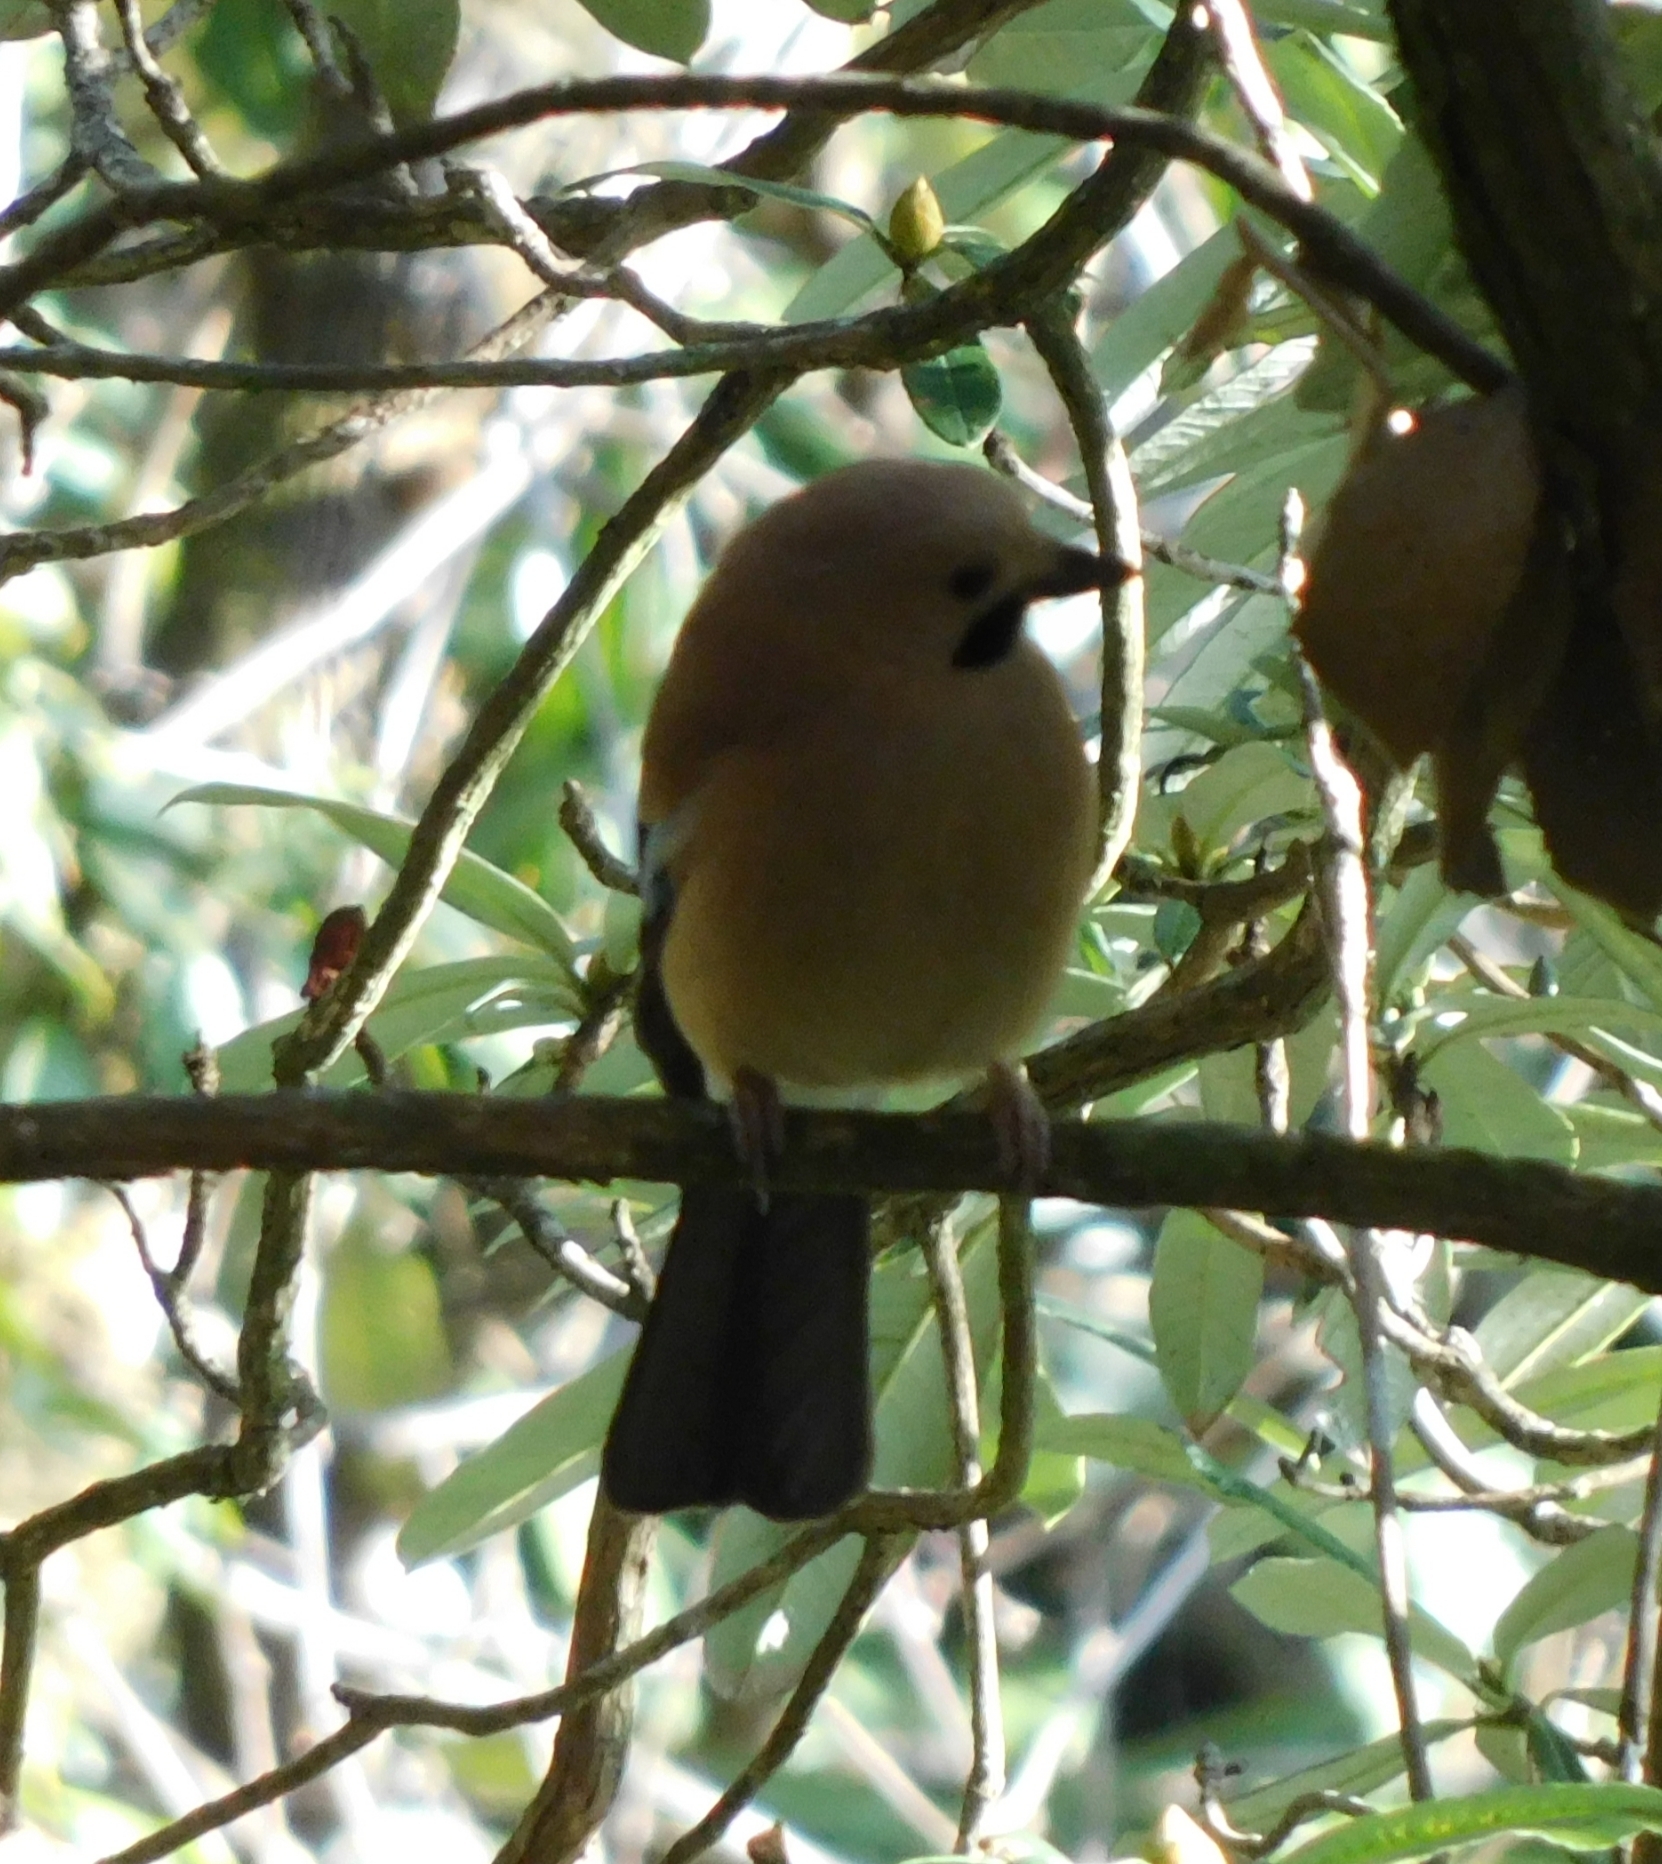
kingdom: Animalia
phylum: Chordata
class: Aves
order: Passeriformes
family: Corvidae
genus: Garrulus
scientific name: Garrulus glandarius
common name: Eurasian jay
